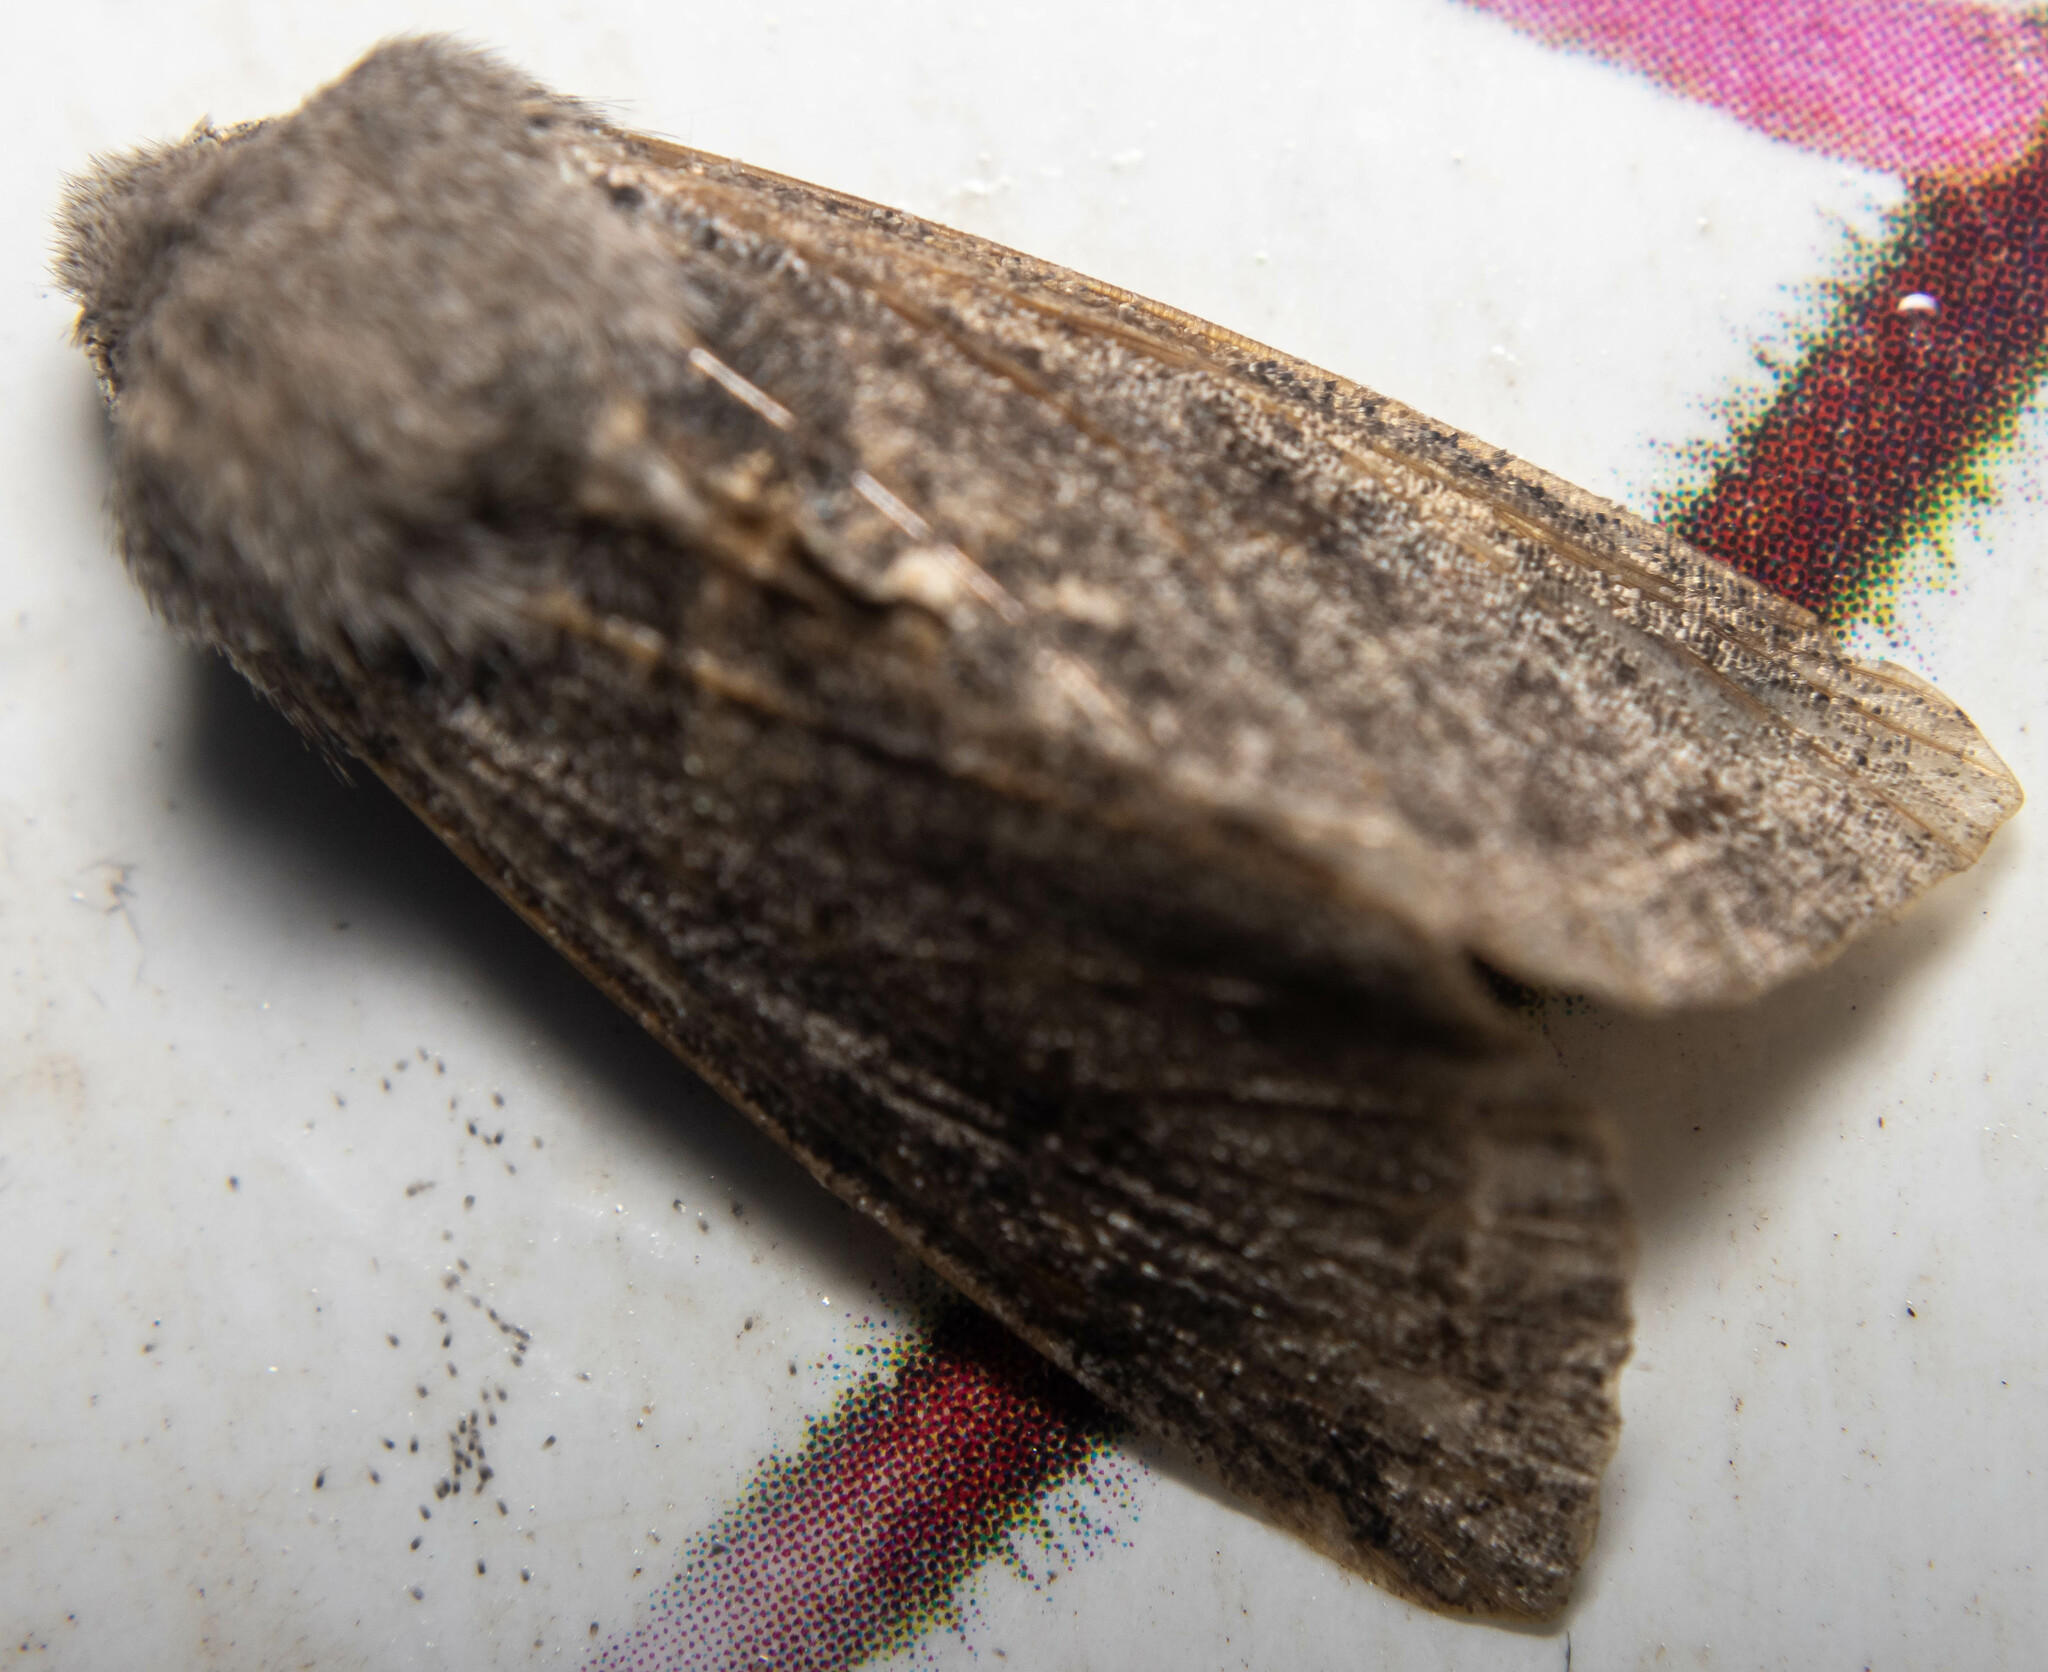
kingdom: Animalia
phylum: Arthropoda
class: Insecta
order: Lepidoptera
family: Noctuidae
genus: Orthosia
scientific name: Orthosia incerta
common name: Clouded drab
